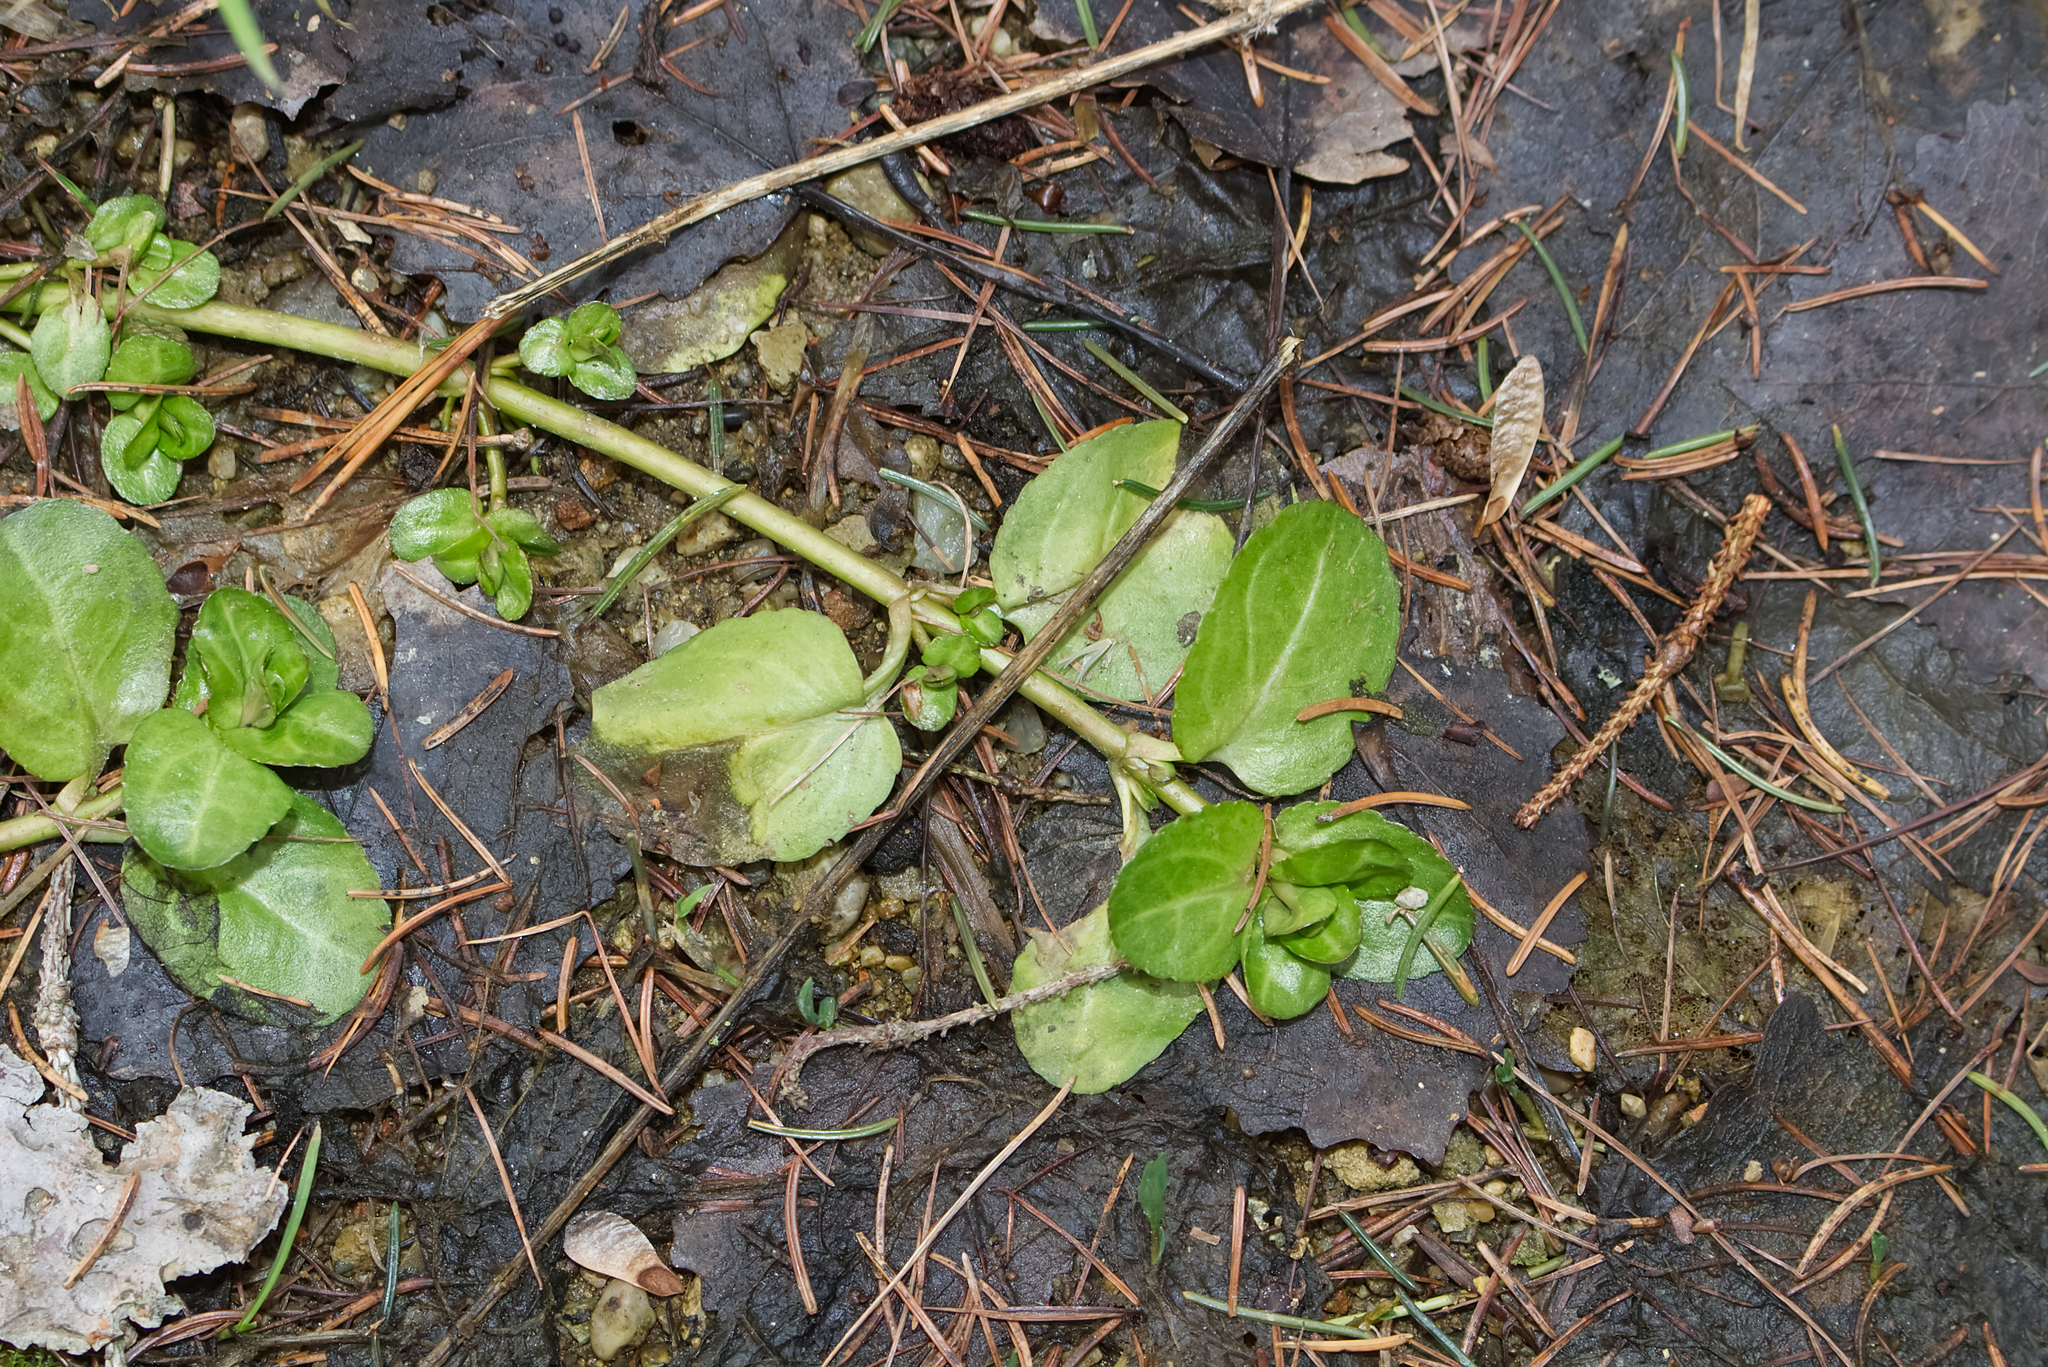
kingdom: Plantae
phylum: Tracheophyta
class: Magnoliopsida
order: Lamiales
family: Plantaginaceae
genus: Veronica
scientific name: Veronica beccabunga
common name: Brooklime
